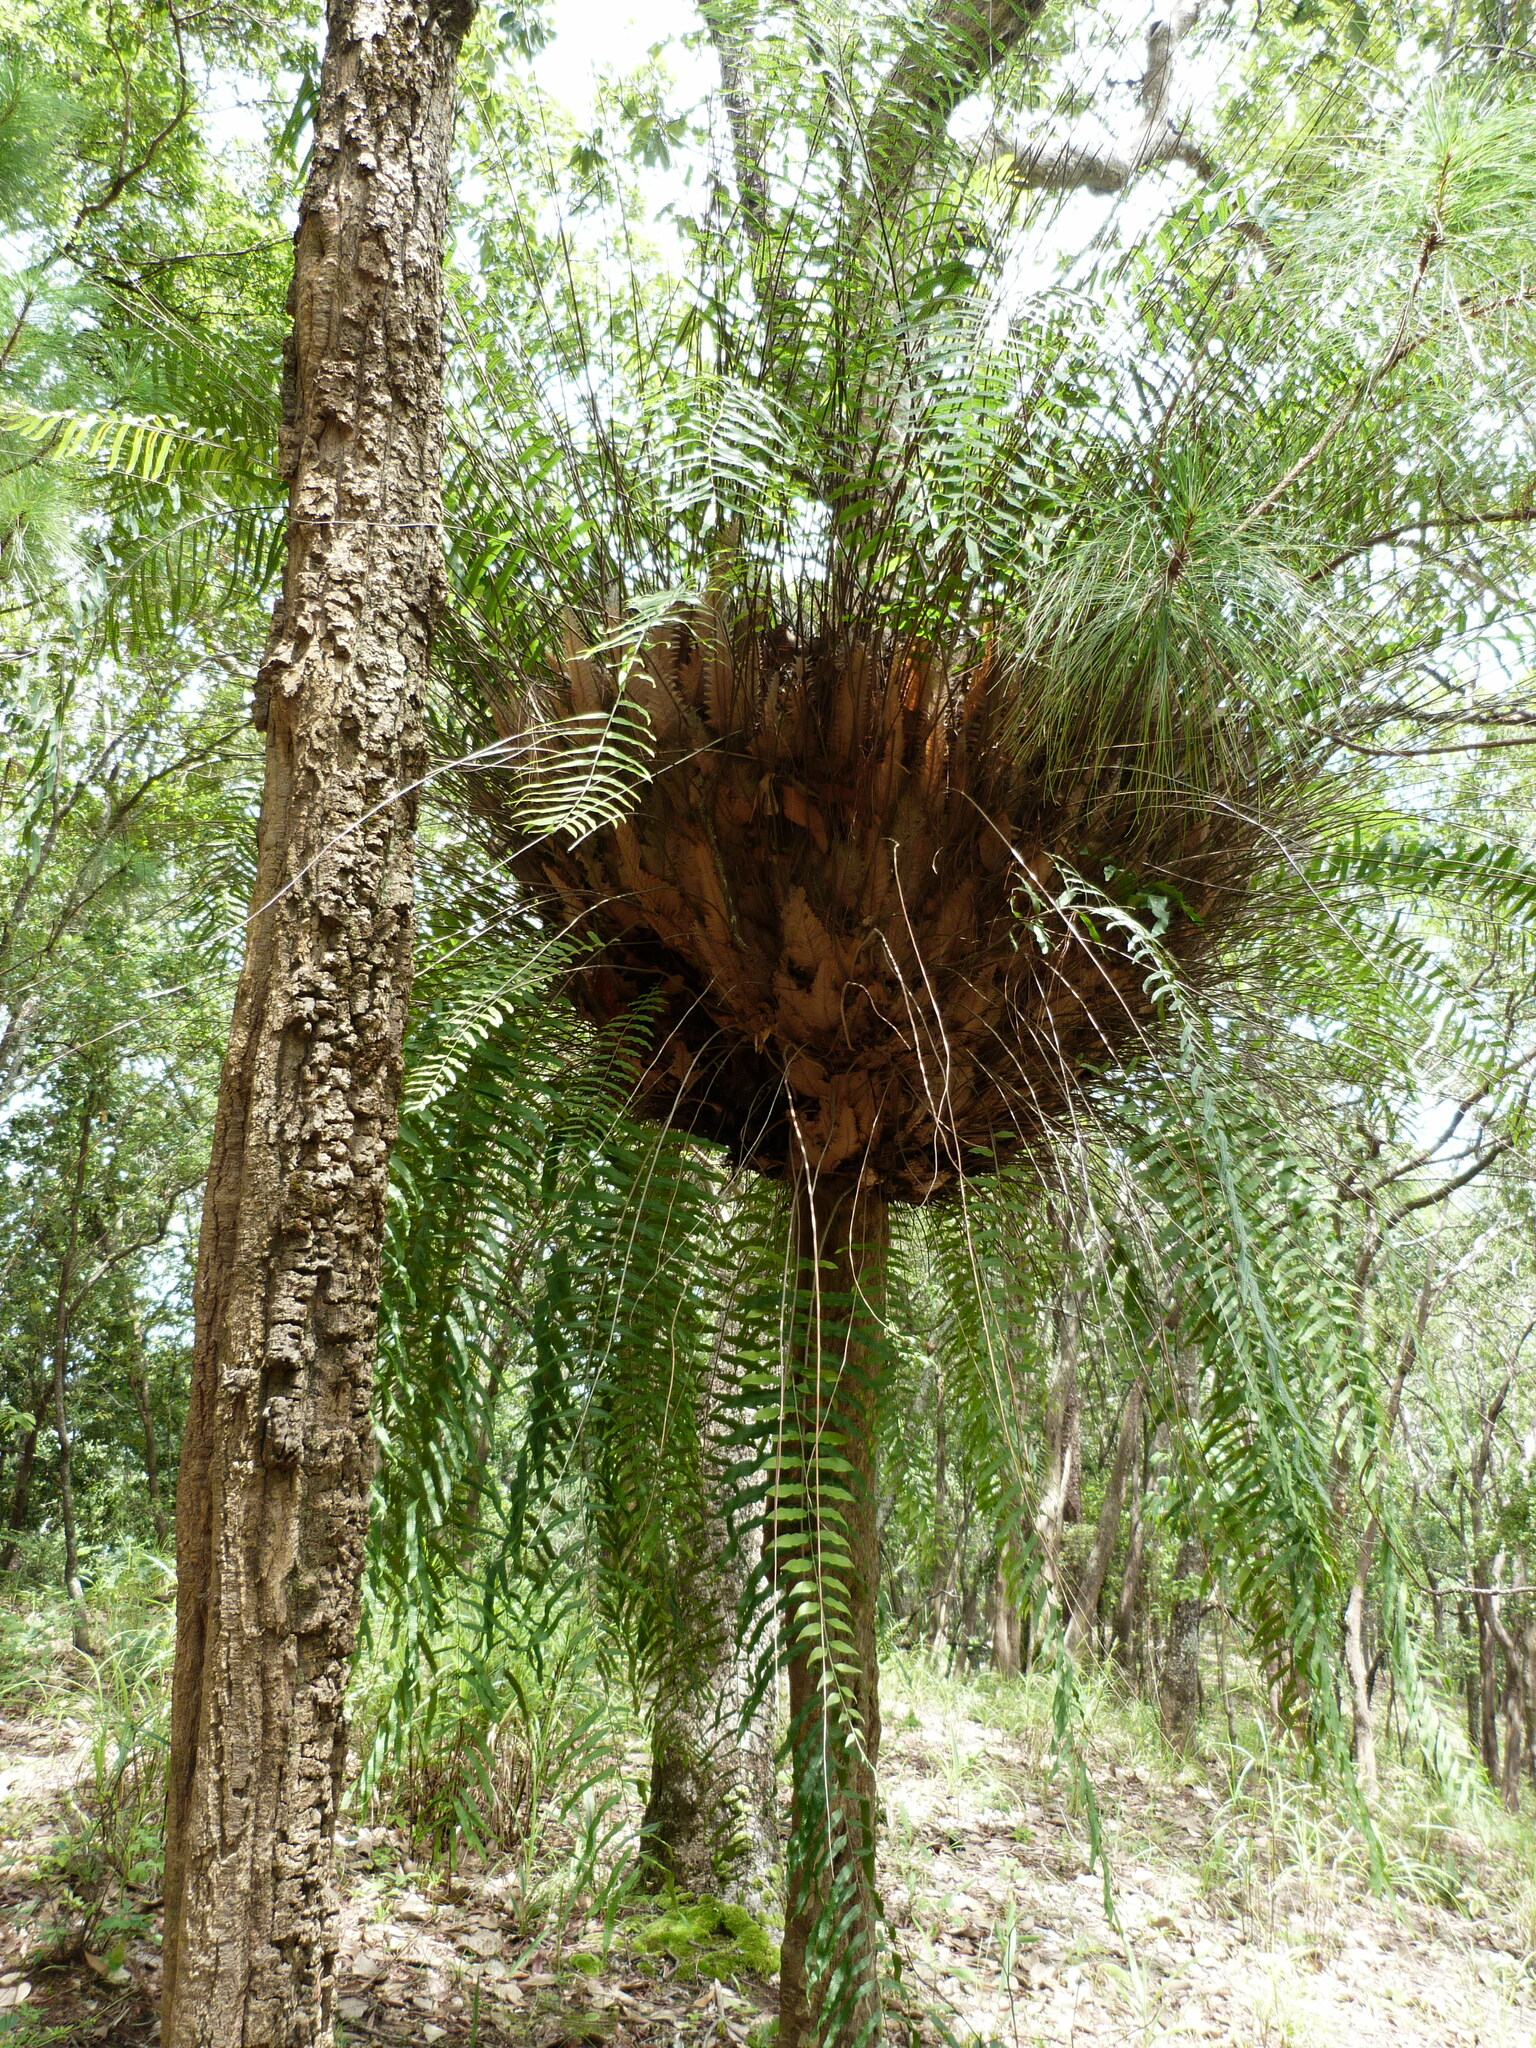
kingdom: Plantae
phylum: Tracheophyta
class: Polypodiopsida
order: Polypodiales
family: Polypodiaceae
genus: Drynaria
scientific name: Drynaria rigidula
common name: Basket fern
